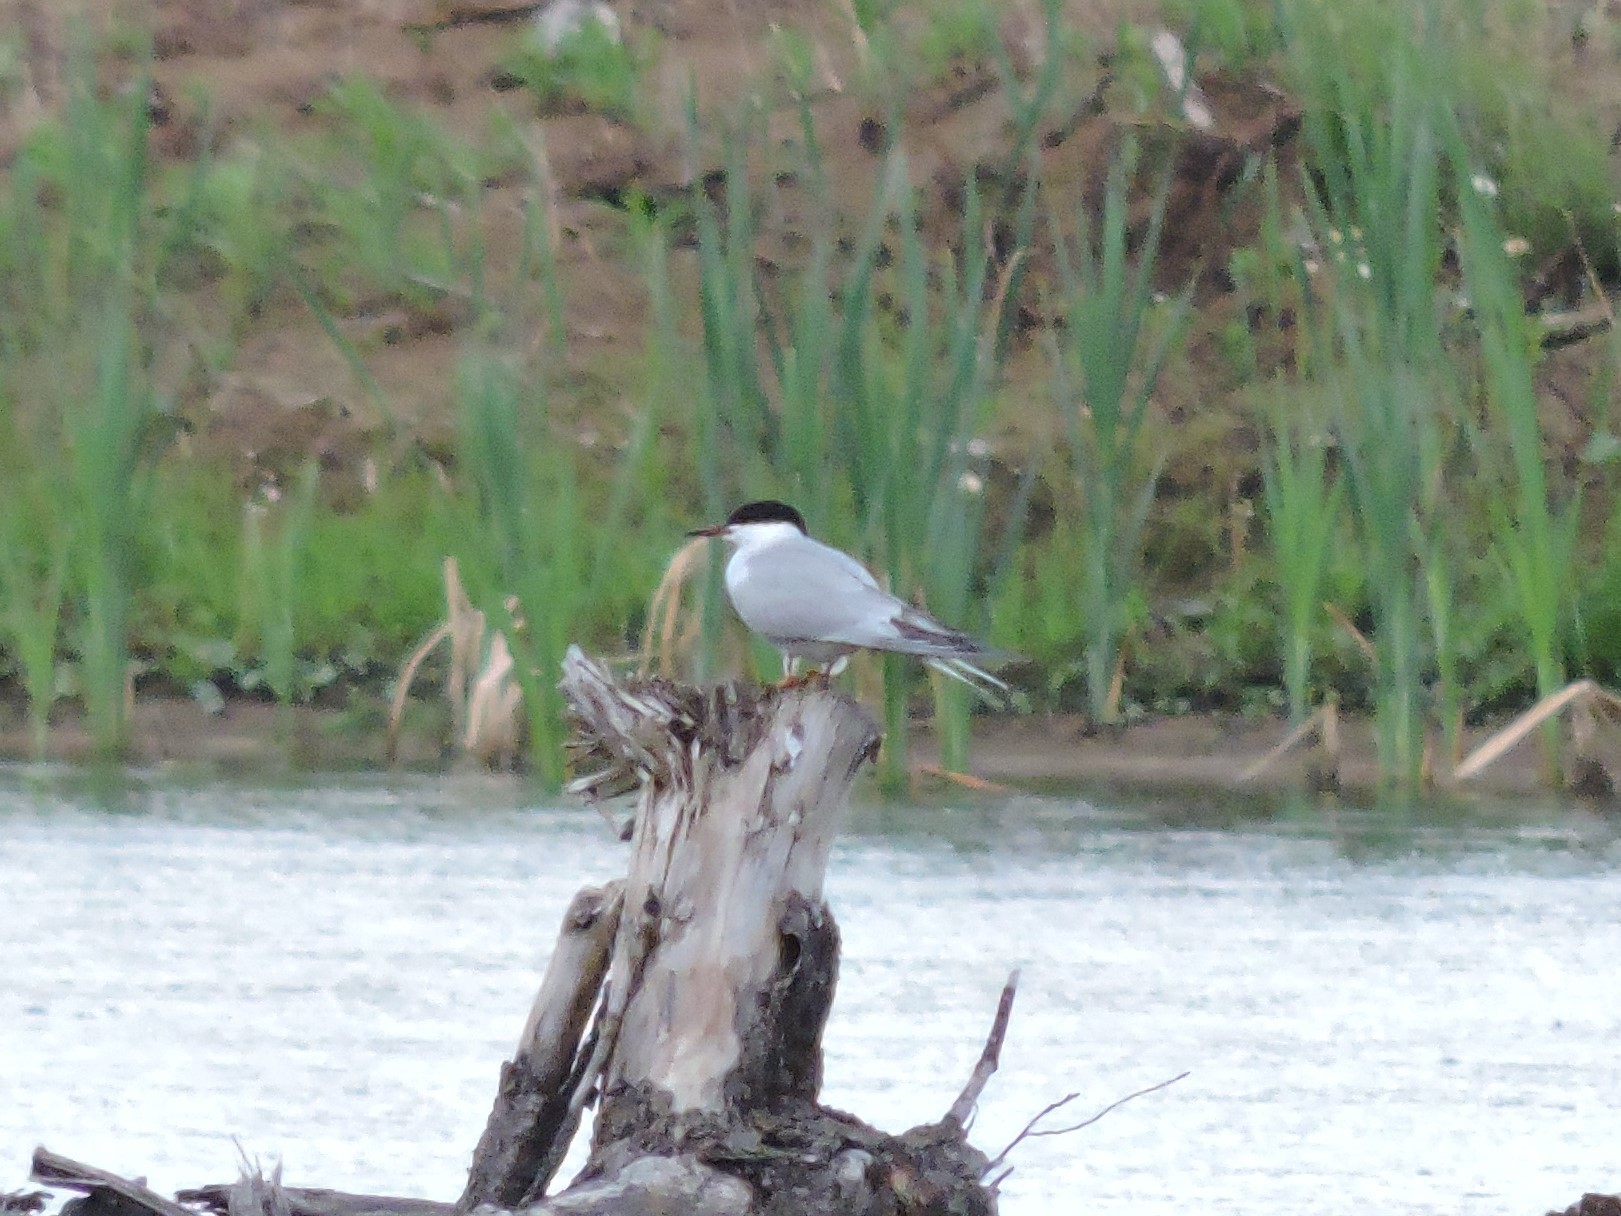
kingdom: Animalia
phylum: Chordata
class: Aves
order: Charadriiformes
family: Laridae
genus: Sterna
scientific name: Sterna hirundo
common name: Common tern
